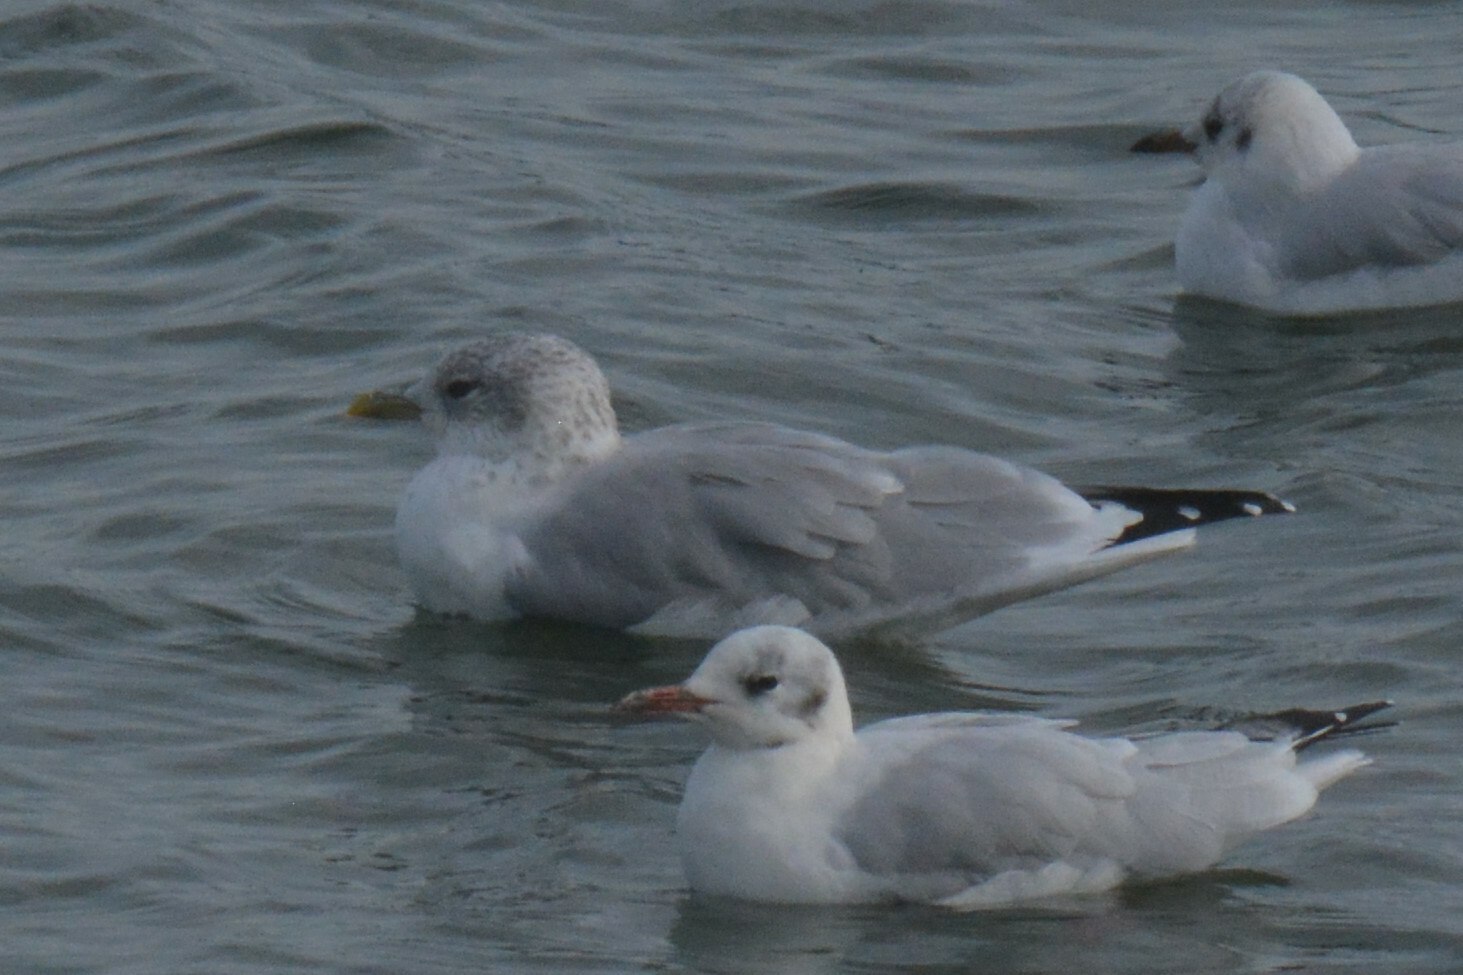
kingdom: Animalia
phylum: Chordata
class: Aves
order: Charadriiformes
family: Laridae
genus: Larus
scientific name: Larus canus
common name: Mew gull
